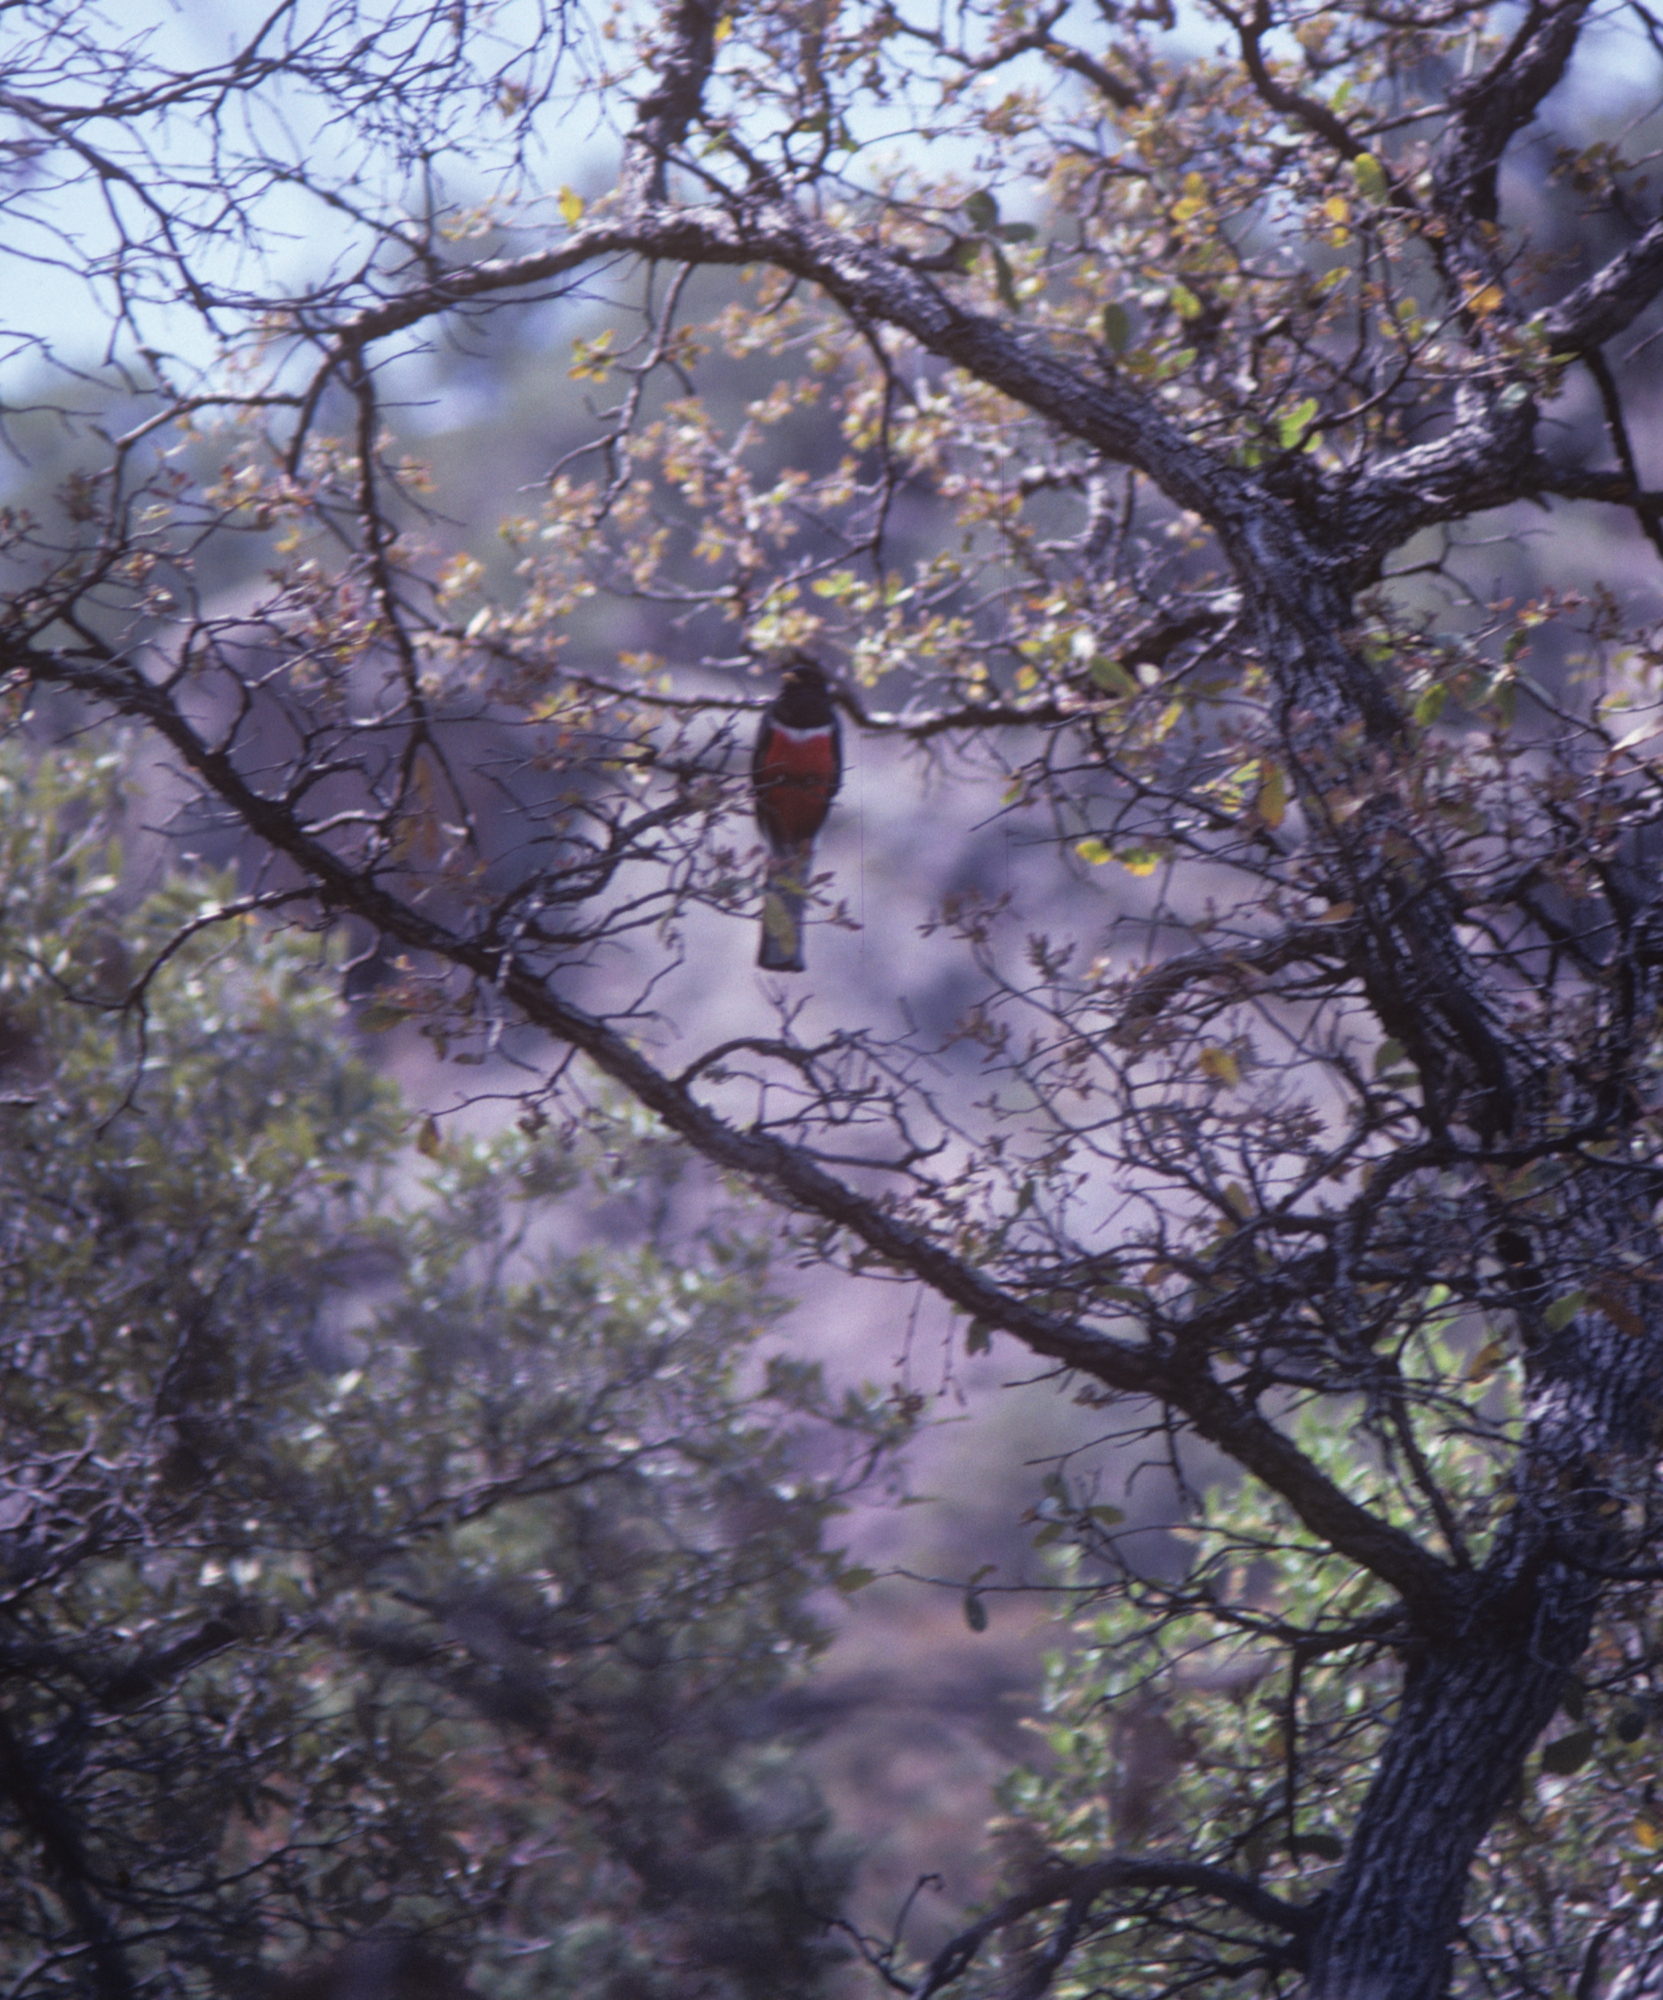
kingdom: Animalia
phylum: Chordata
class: Aves
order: Trogoniformes
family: Trogonidae
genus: Trogon
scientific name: Trogon elegans
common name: Elegant trogon
